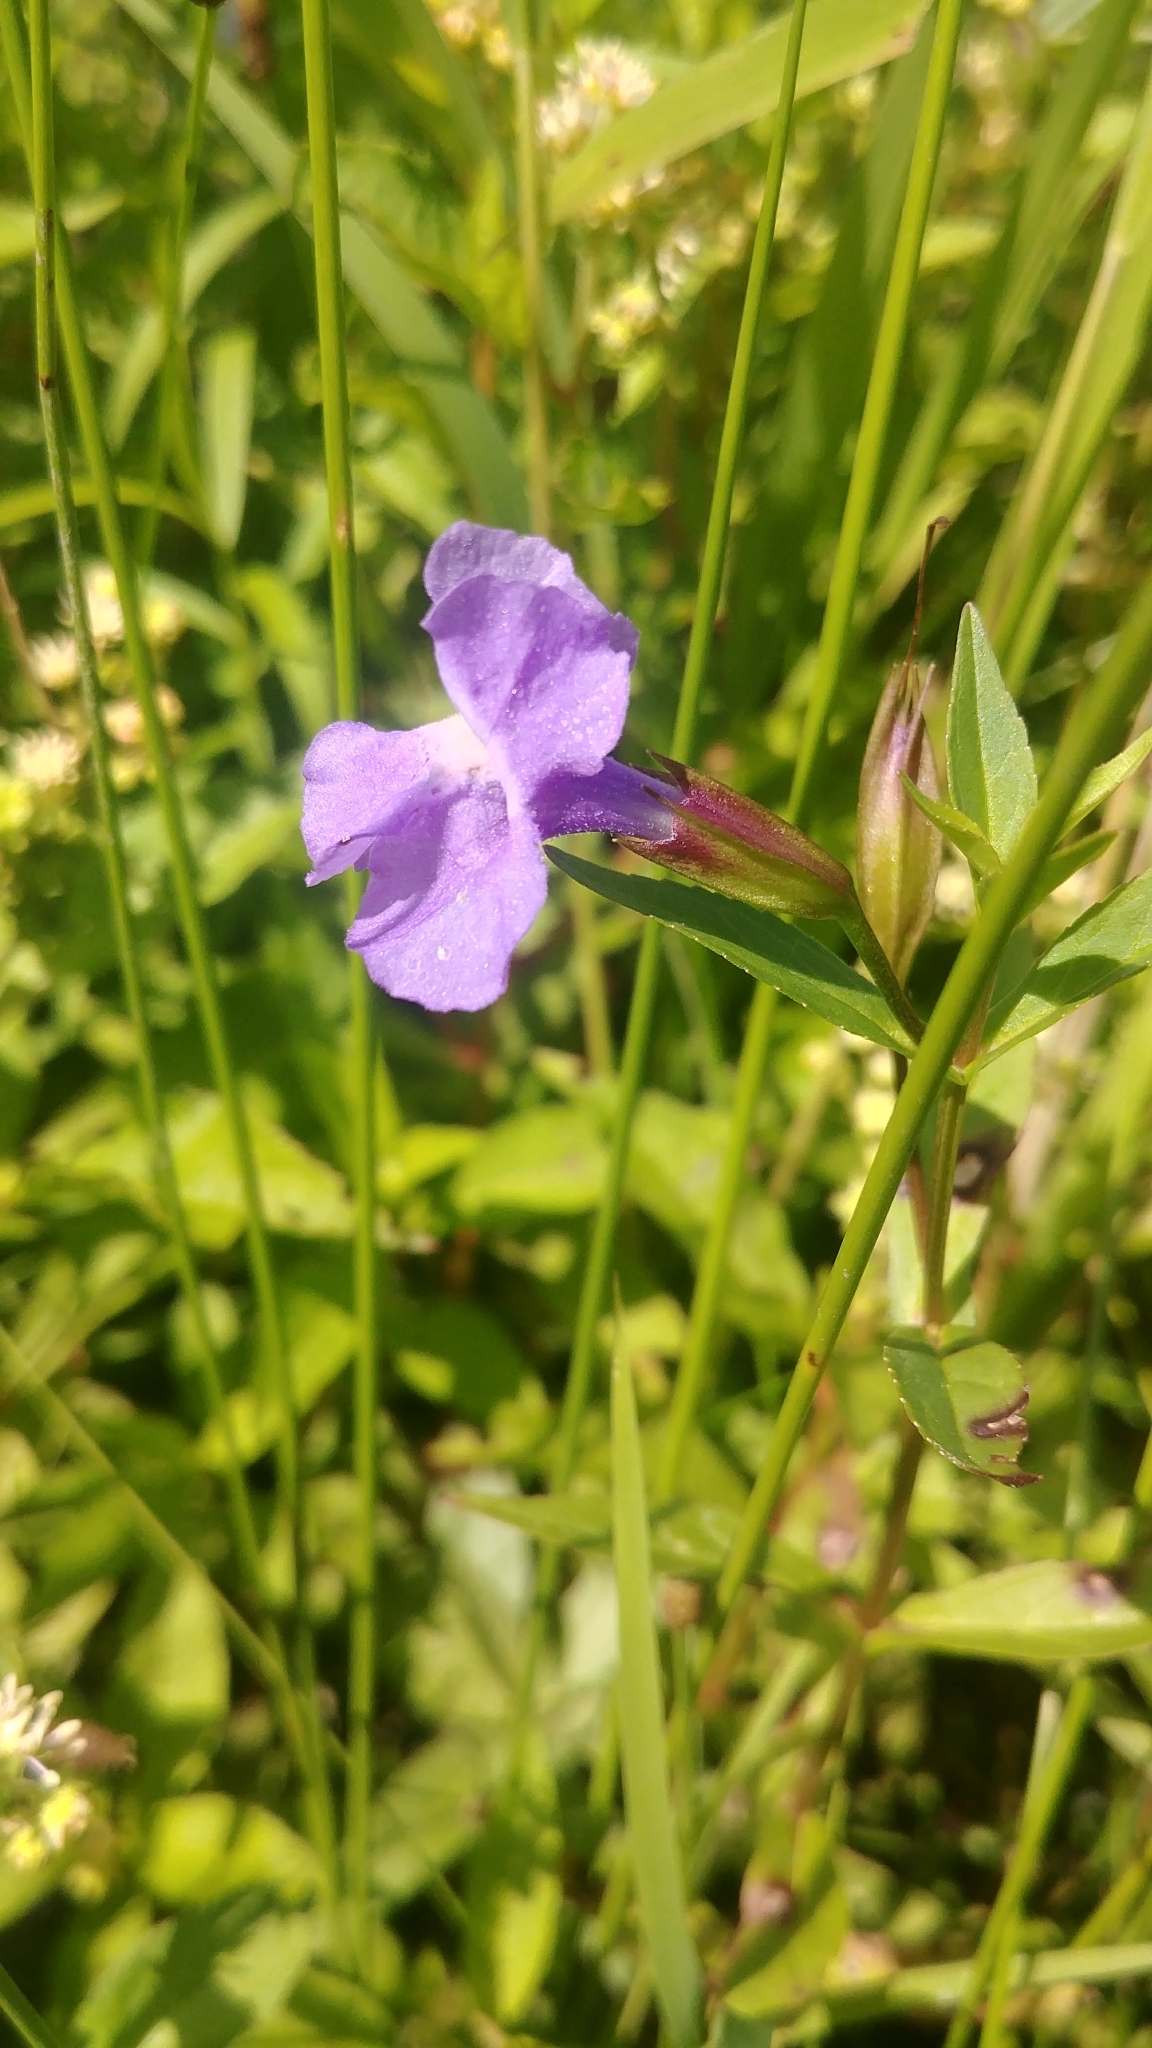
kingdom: Plantae
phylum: Tracheophyta
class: Magnoliopsida
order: Lamiales
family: Phrymaceae
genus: Mimulus
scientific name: Mimulus ringens
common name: Allegheny monkeyflower
